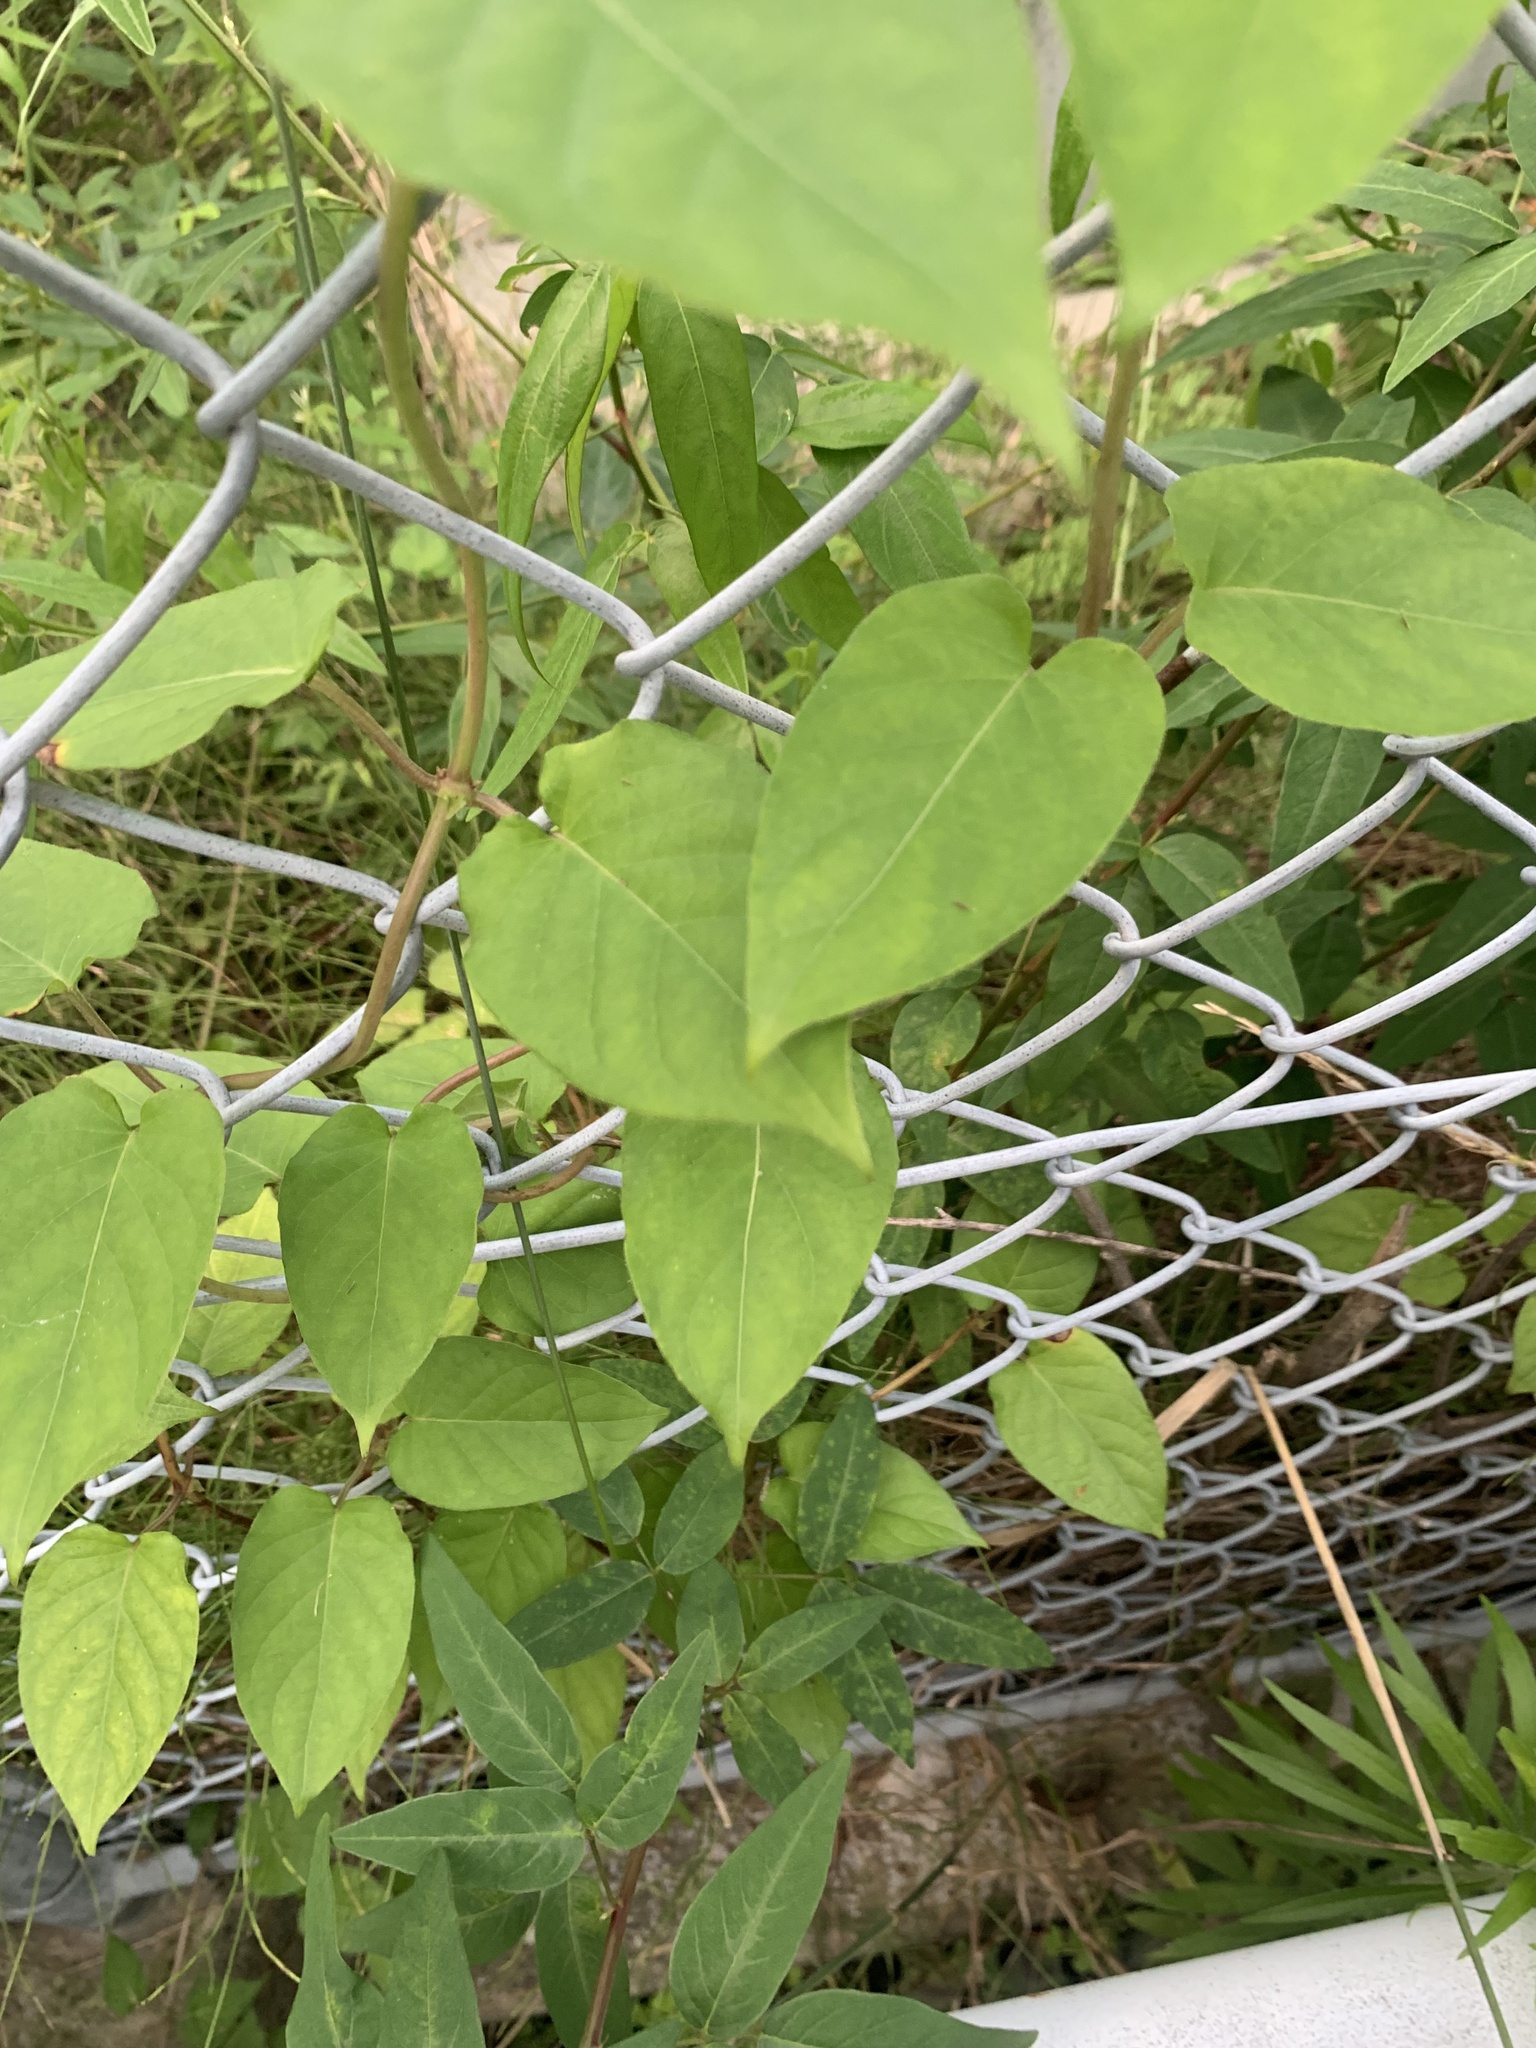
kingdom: Plantae
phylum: Tracheophyta
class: Magnoliopsida
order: Gentianales
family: Rubiaceae
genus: Paederia
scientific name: Paederia foetida
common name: Stinkvine
